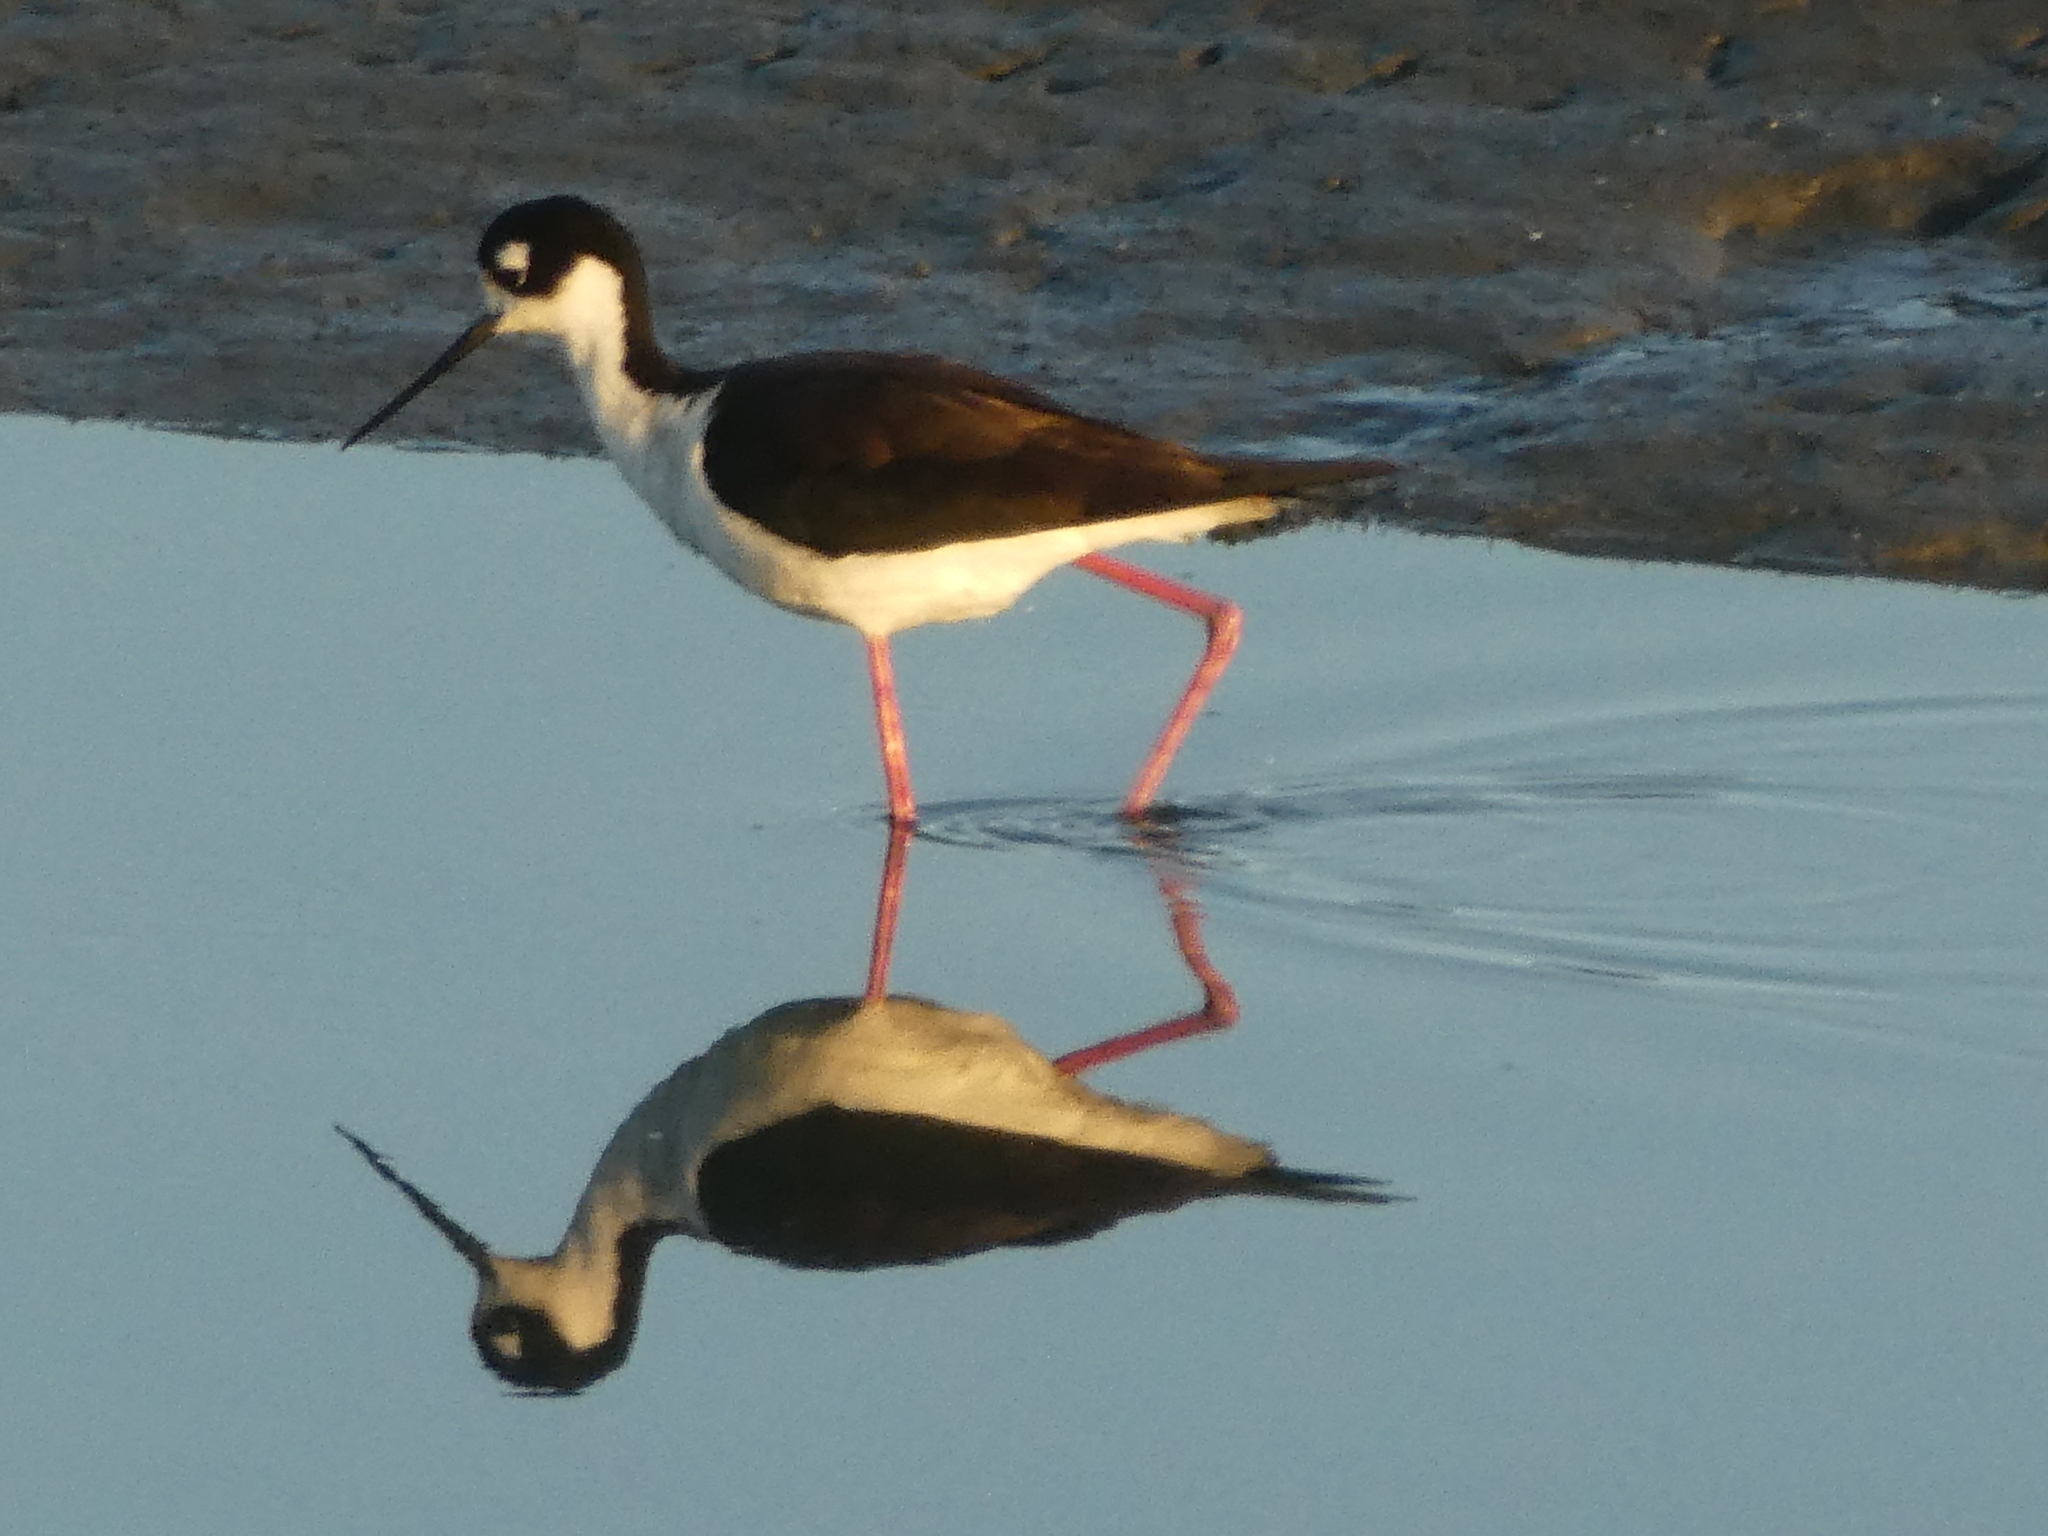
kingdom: Animalia
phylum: Chordata
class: Aves
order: Charadriiformes
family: Recurvirostridae
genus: Himantopus
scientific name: Himantopus mexicanus
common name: Black-necked stilt
